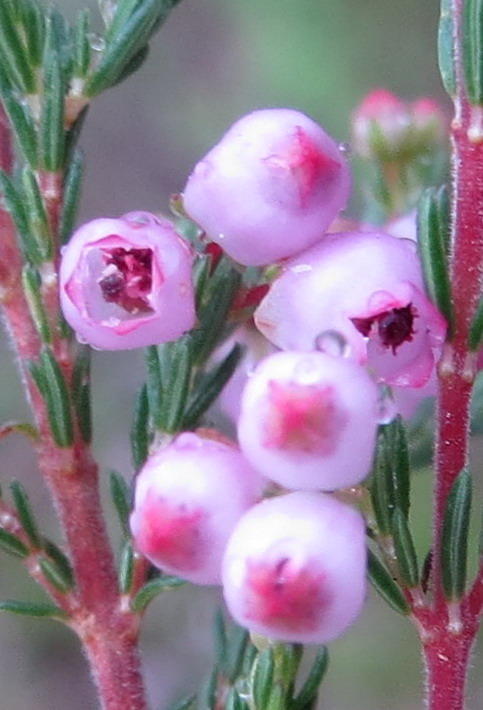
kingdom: Plantae
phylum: Tracheophyta
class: Magnoliopsida
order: Ericales
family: Ericaceae
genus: Erica
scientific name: Erica gracilis
